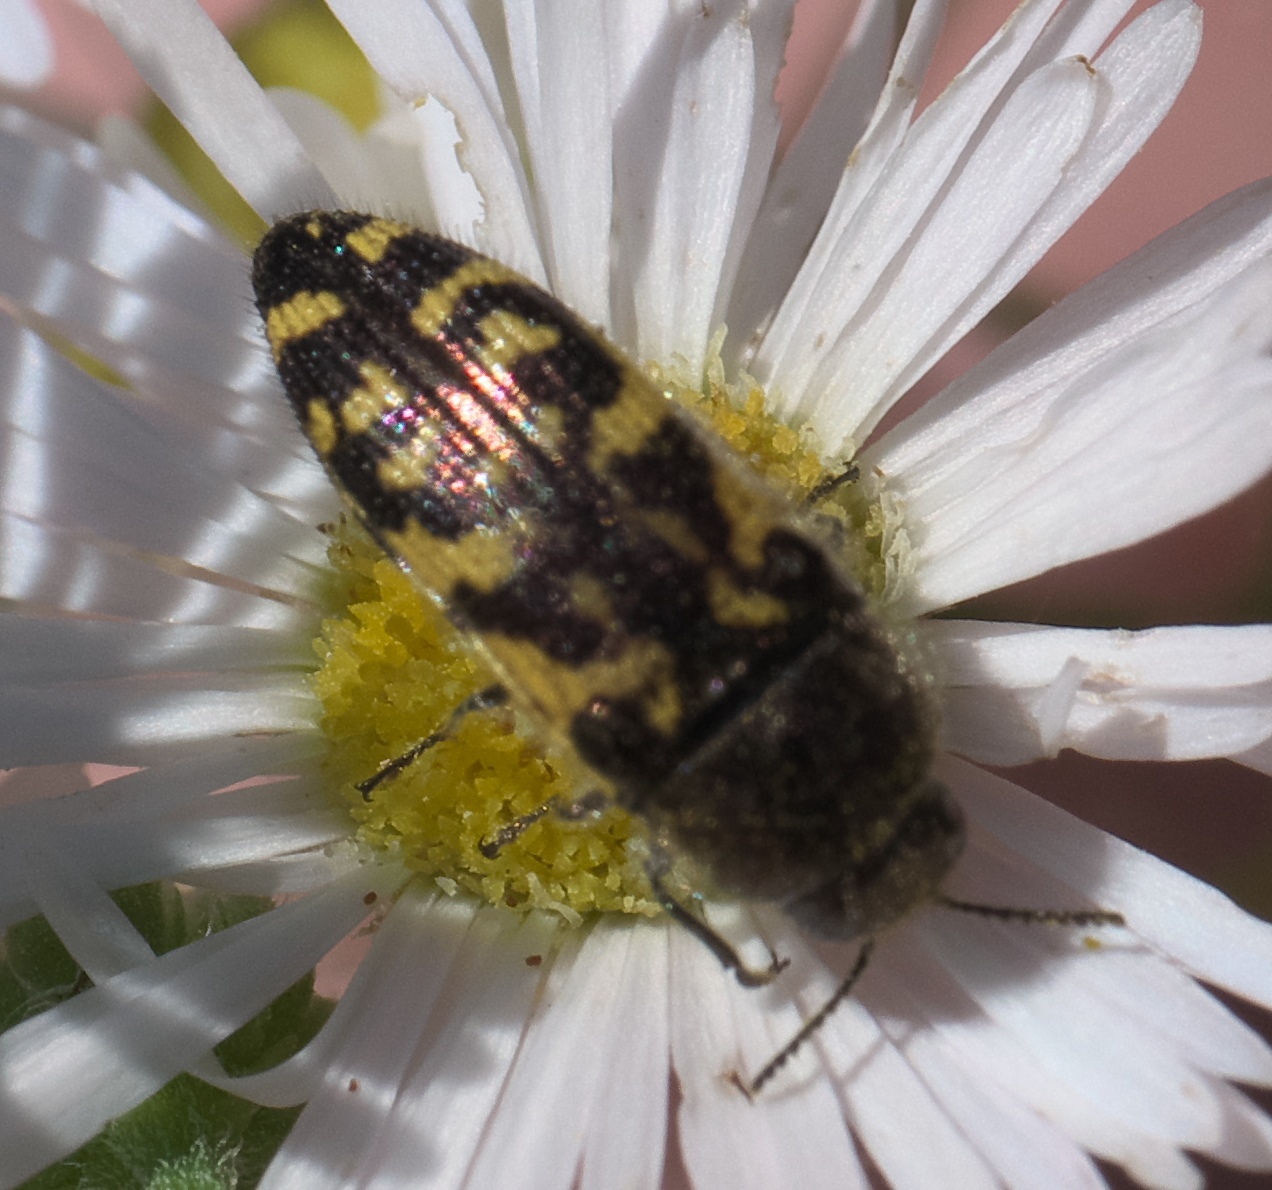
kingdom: Animalia
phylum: Arthropoda
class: Insecta
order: Coleoptera
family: Buprestidae
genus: Acmaeodera
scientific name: Acmaeodera mixta
